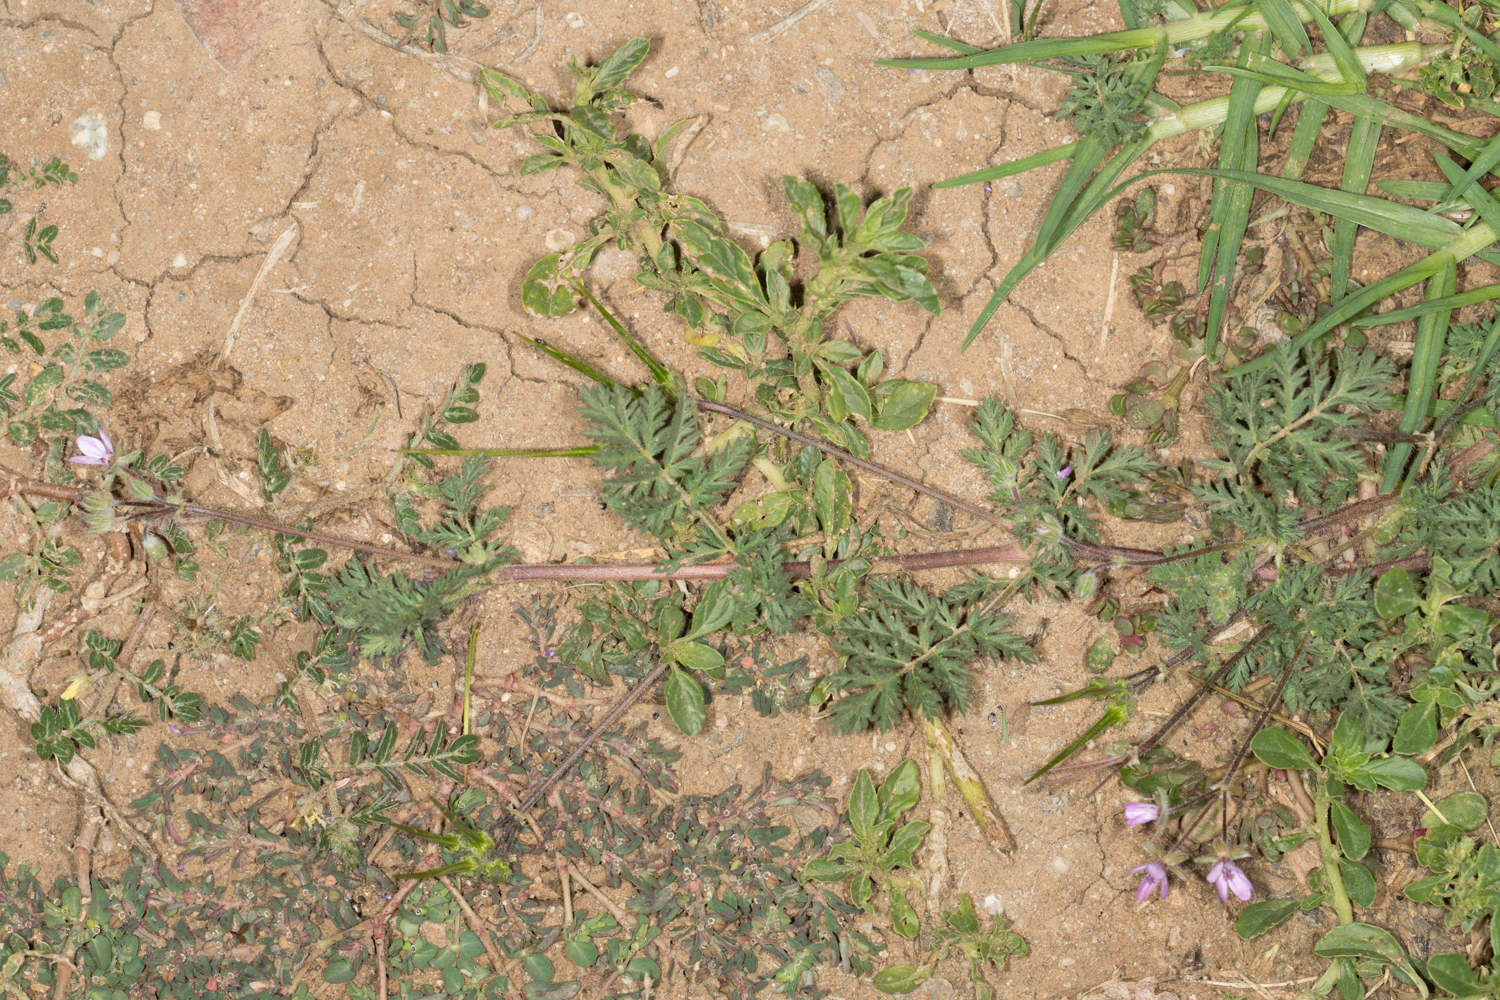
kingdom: Plantae
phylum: Tracheophyta
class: Magnoliopsida
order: Geraniales
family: Geraniaceae
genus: Erodium
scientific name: Erodium cicutarium
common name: Common stork's-bill
